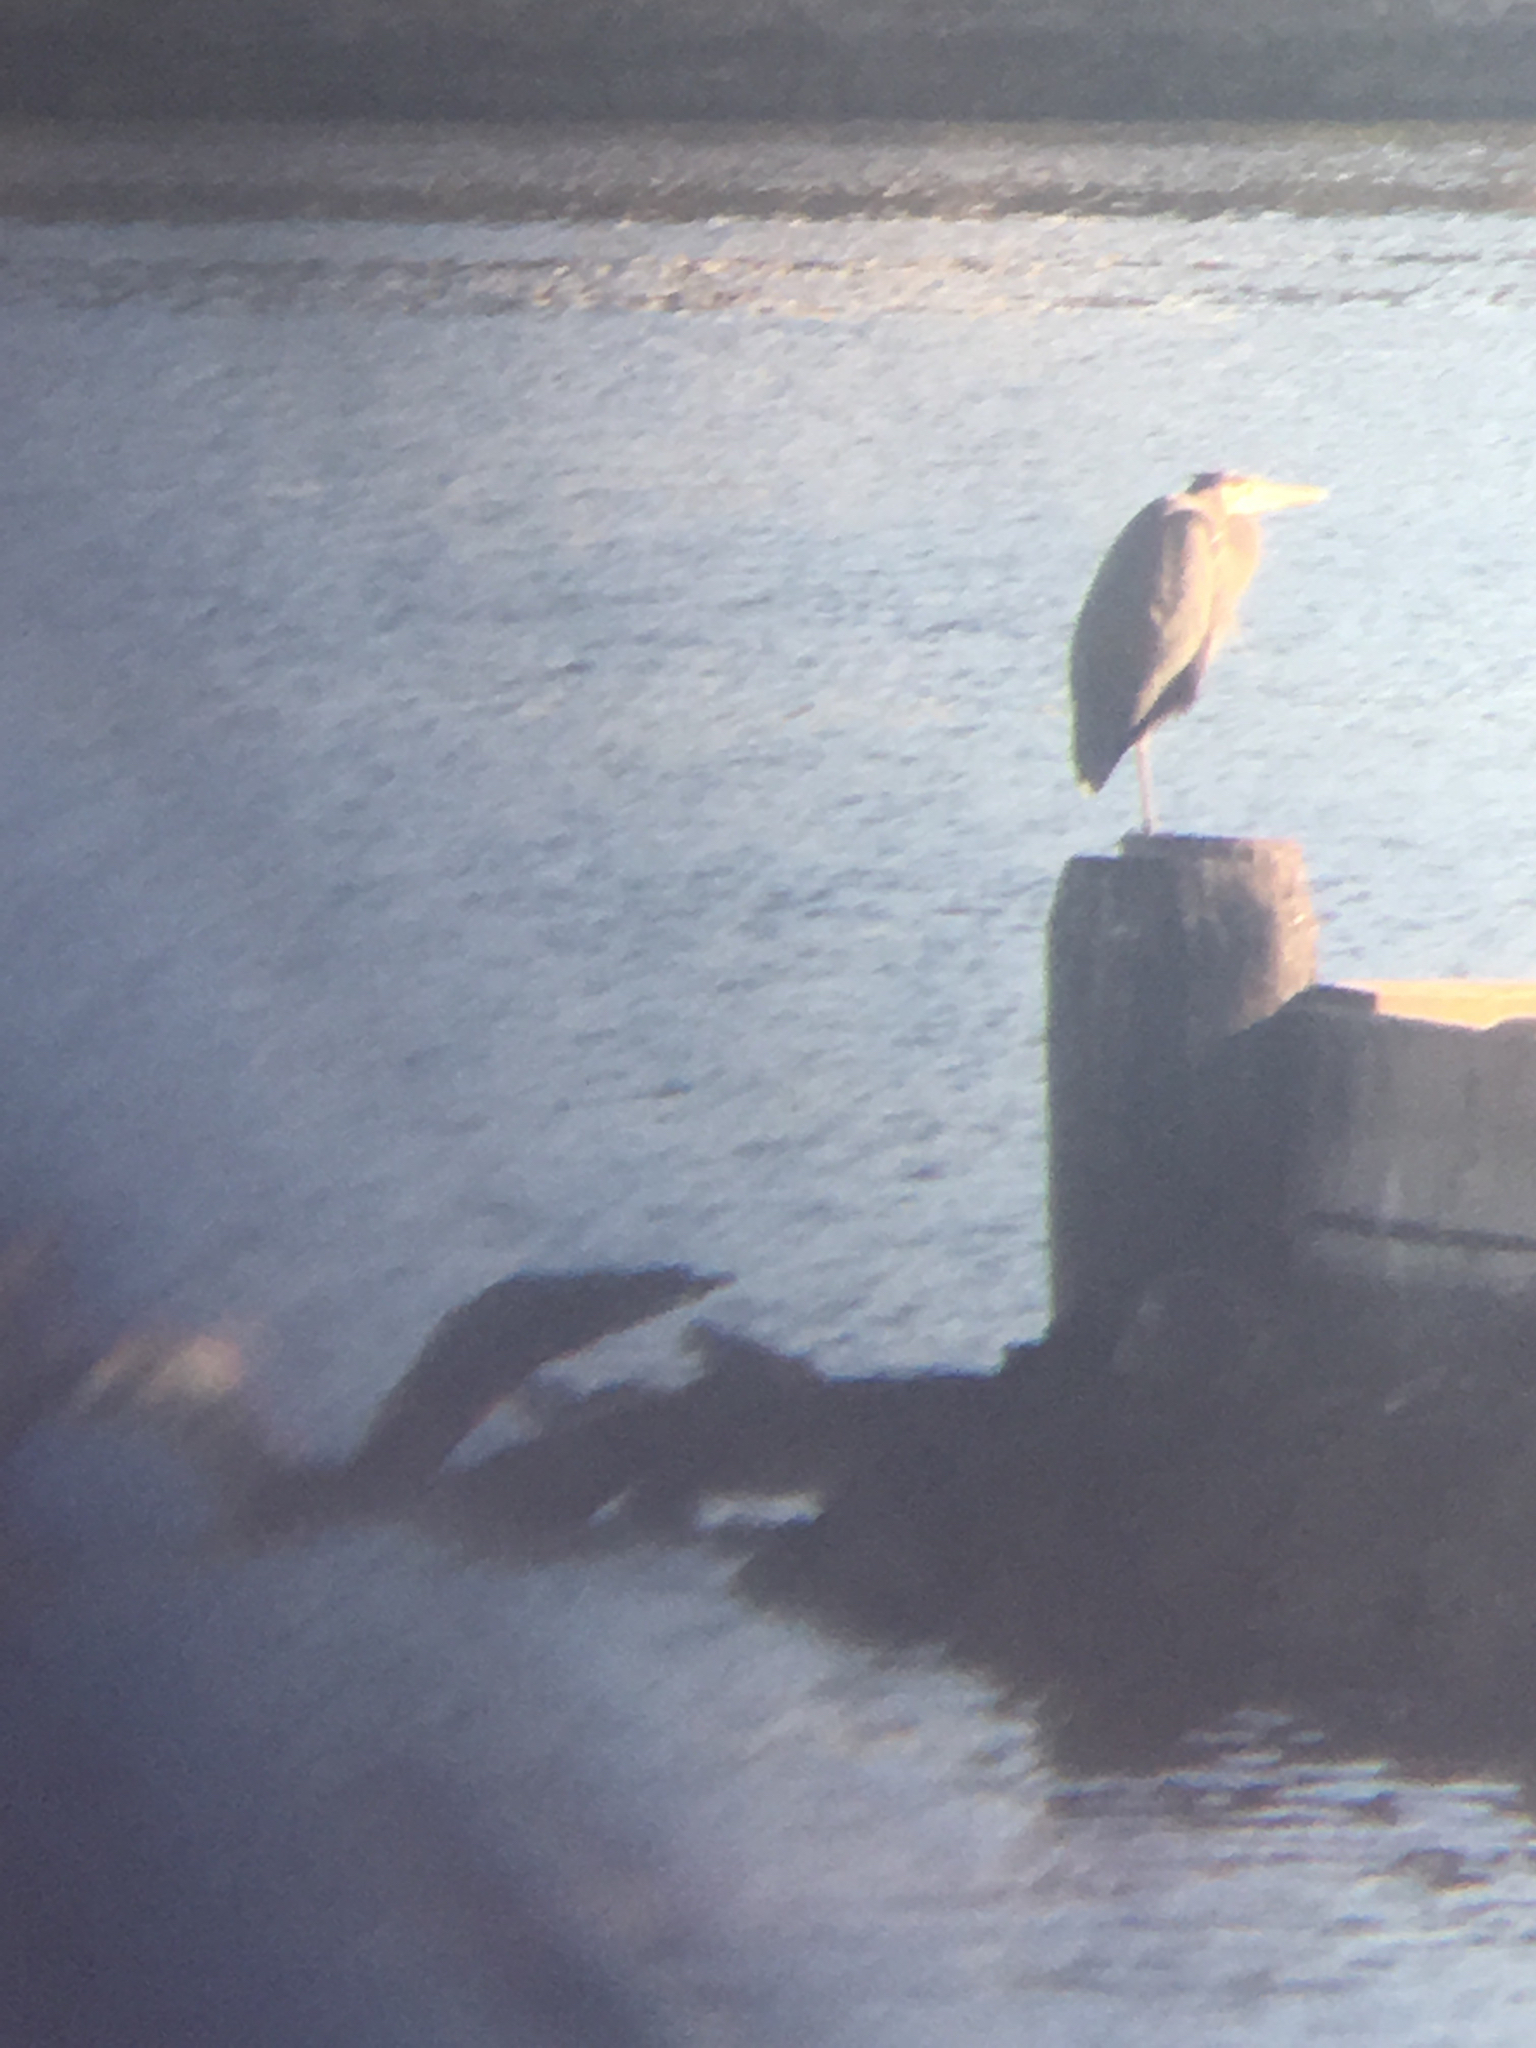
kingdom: Animalia
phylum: Chordata
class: Aves
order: Pelecaniformes
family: Ardeidae
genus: Ardea
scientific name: Ardea herodias
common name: Great blue heron
